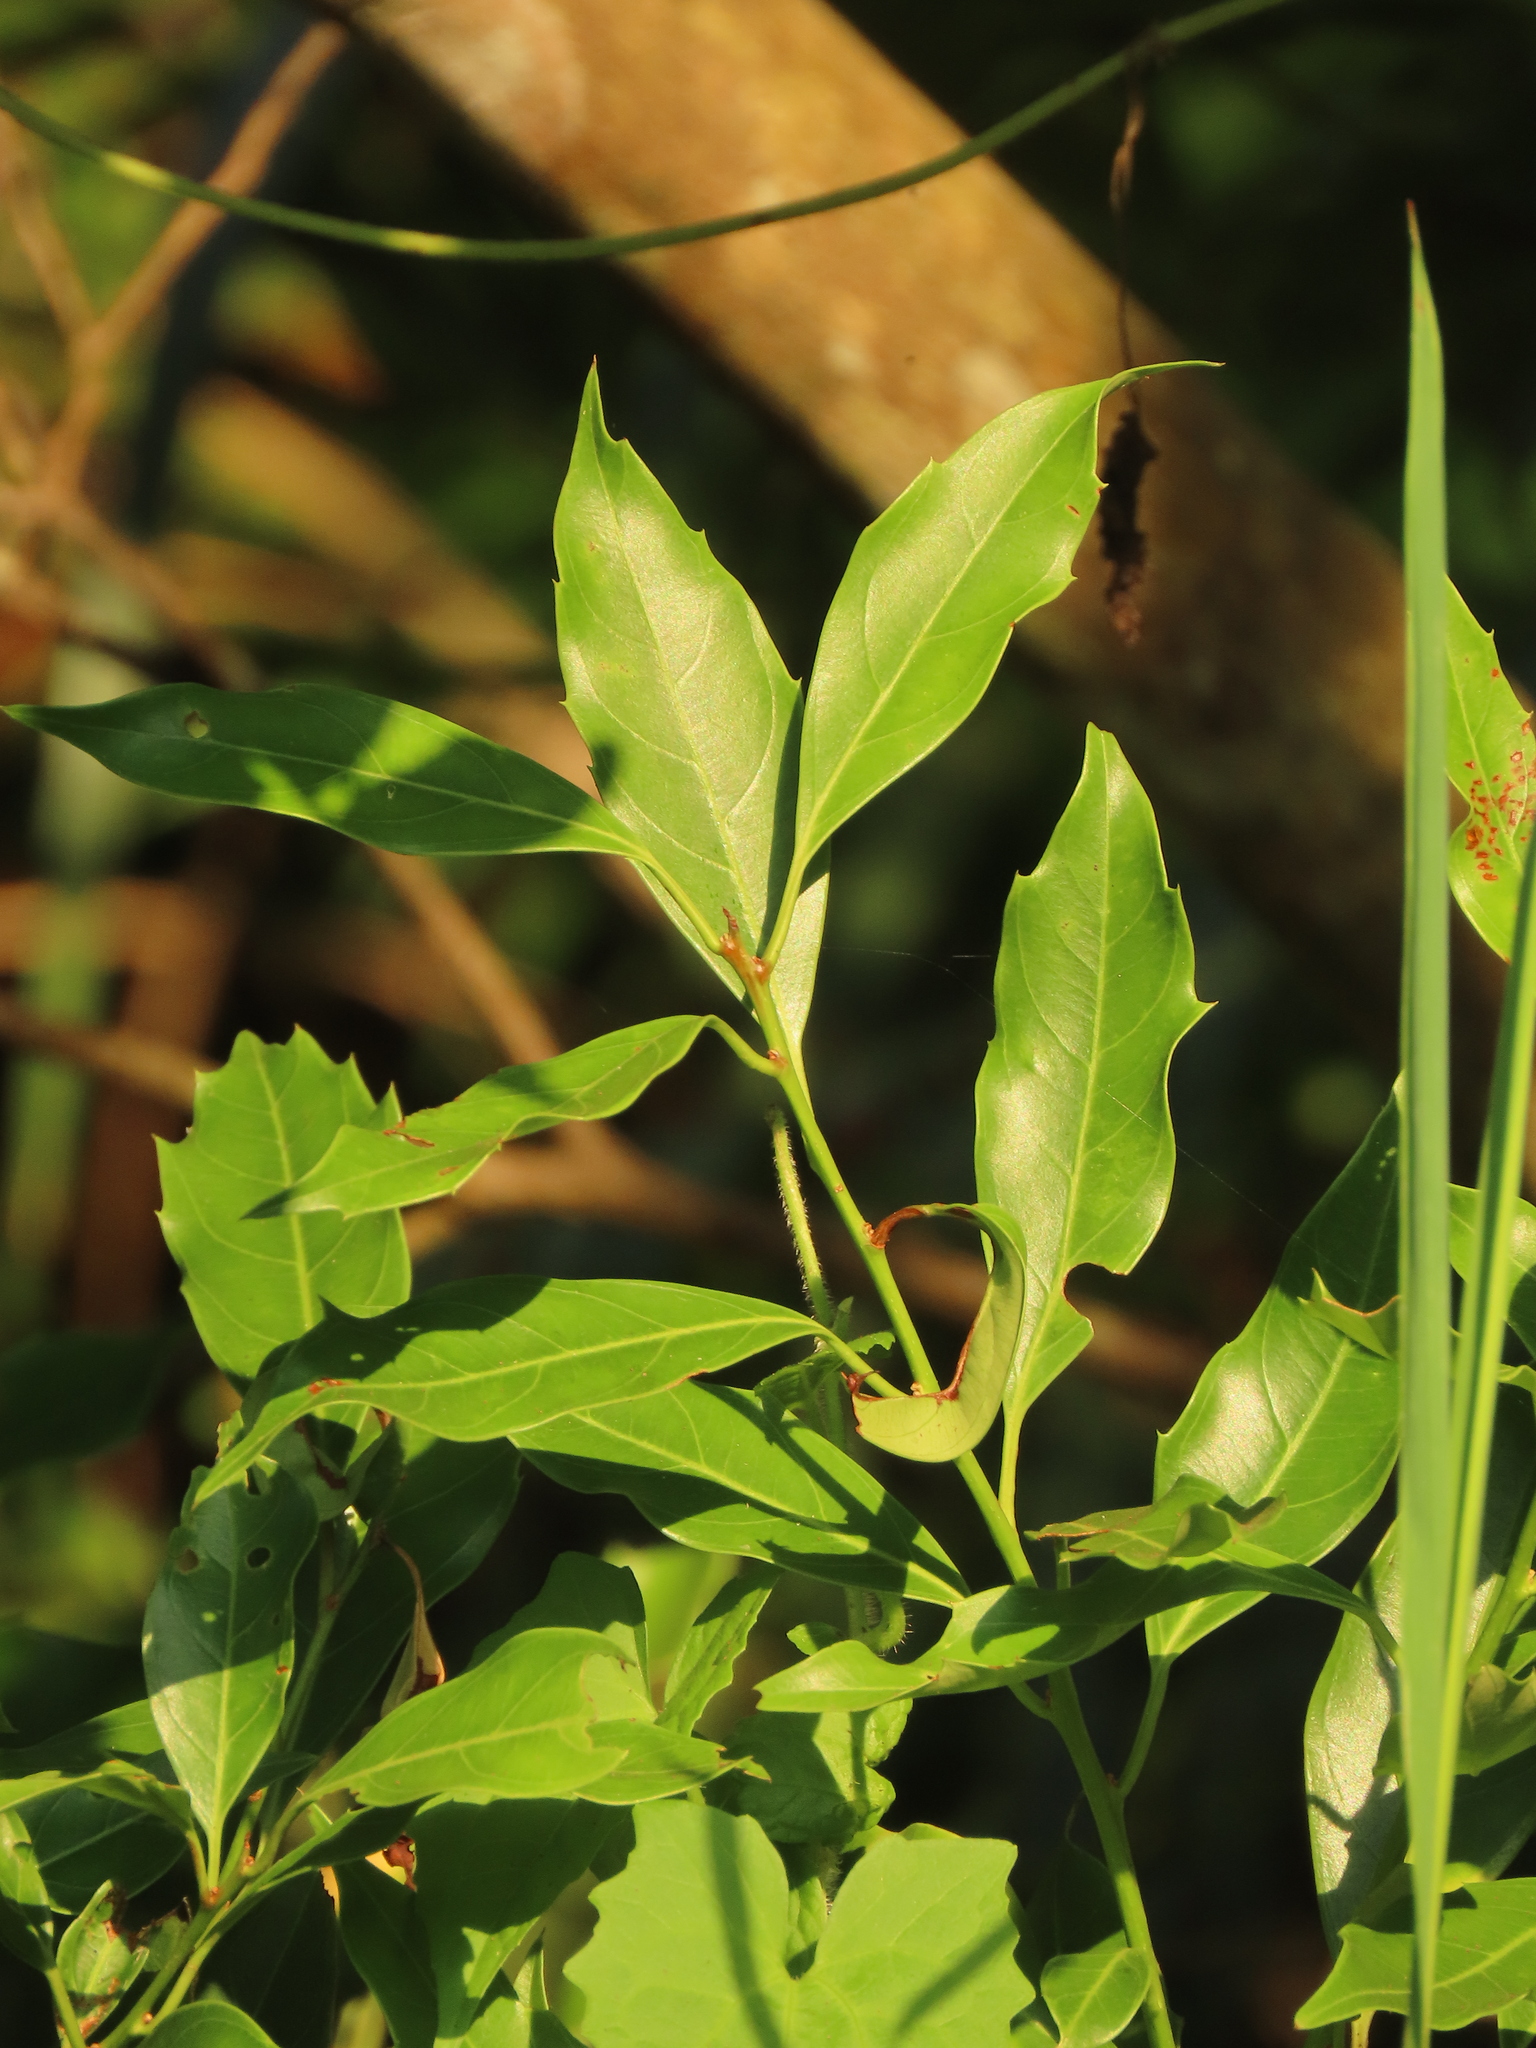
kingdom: Plantae
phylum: Tracheophyta
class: Magnoliopsida
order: Saxifragales
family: Iteaceae
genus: Itea
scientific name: Itea oldhamii
